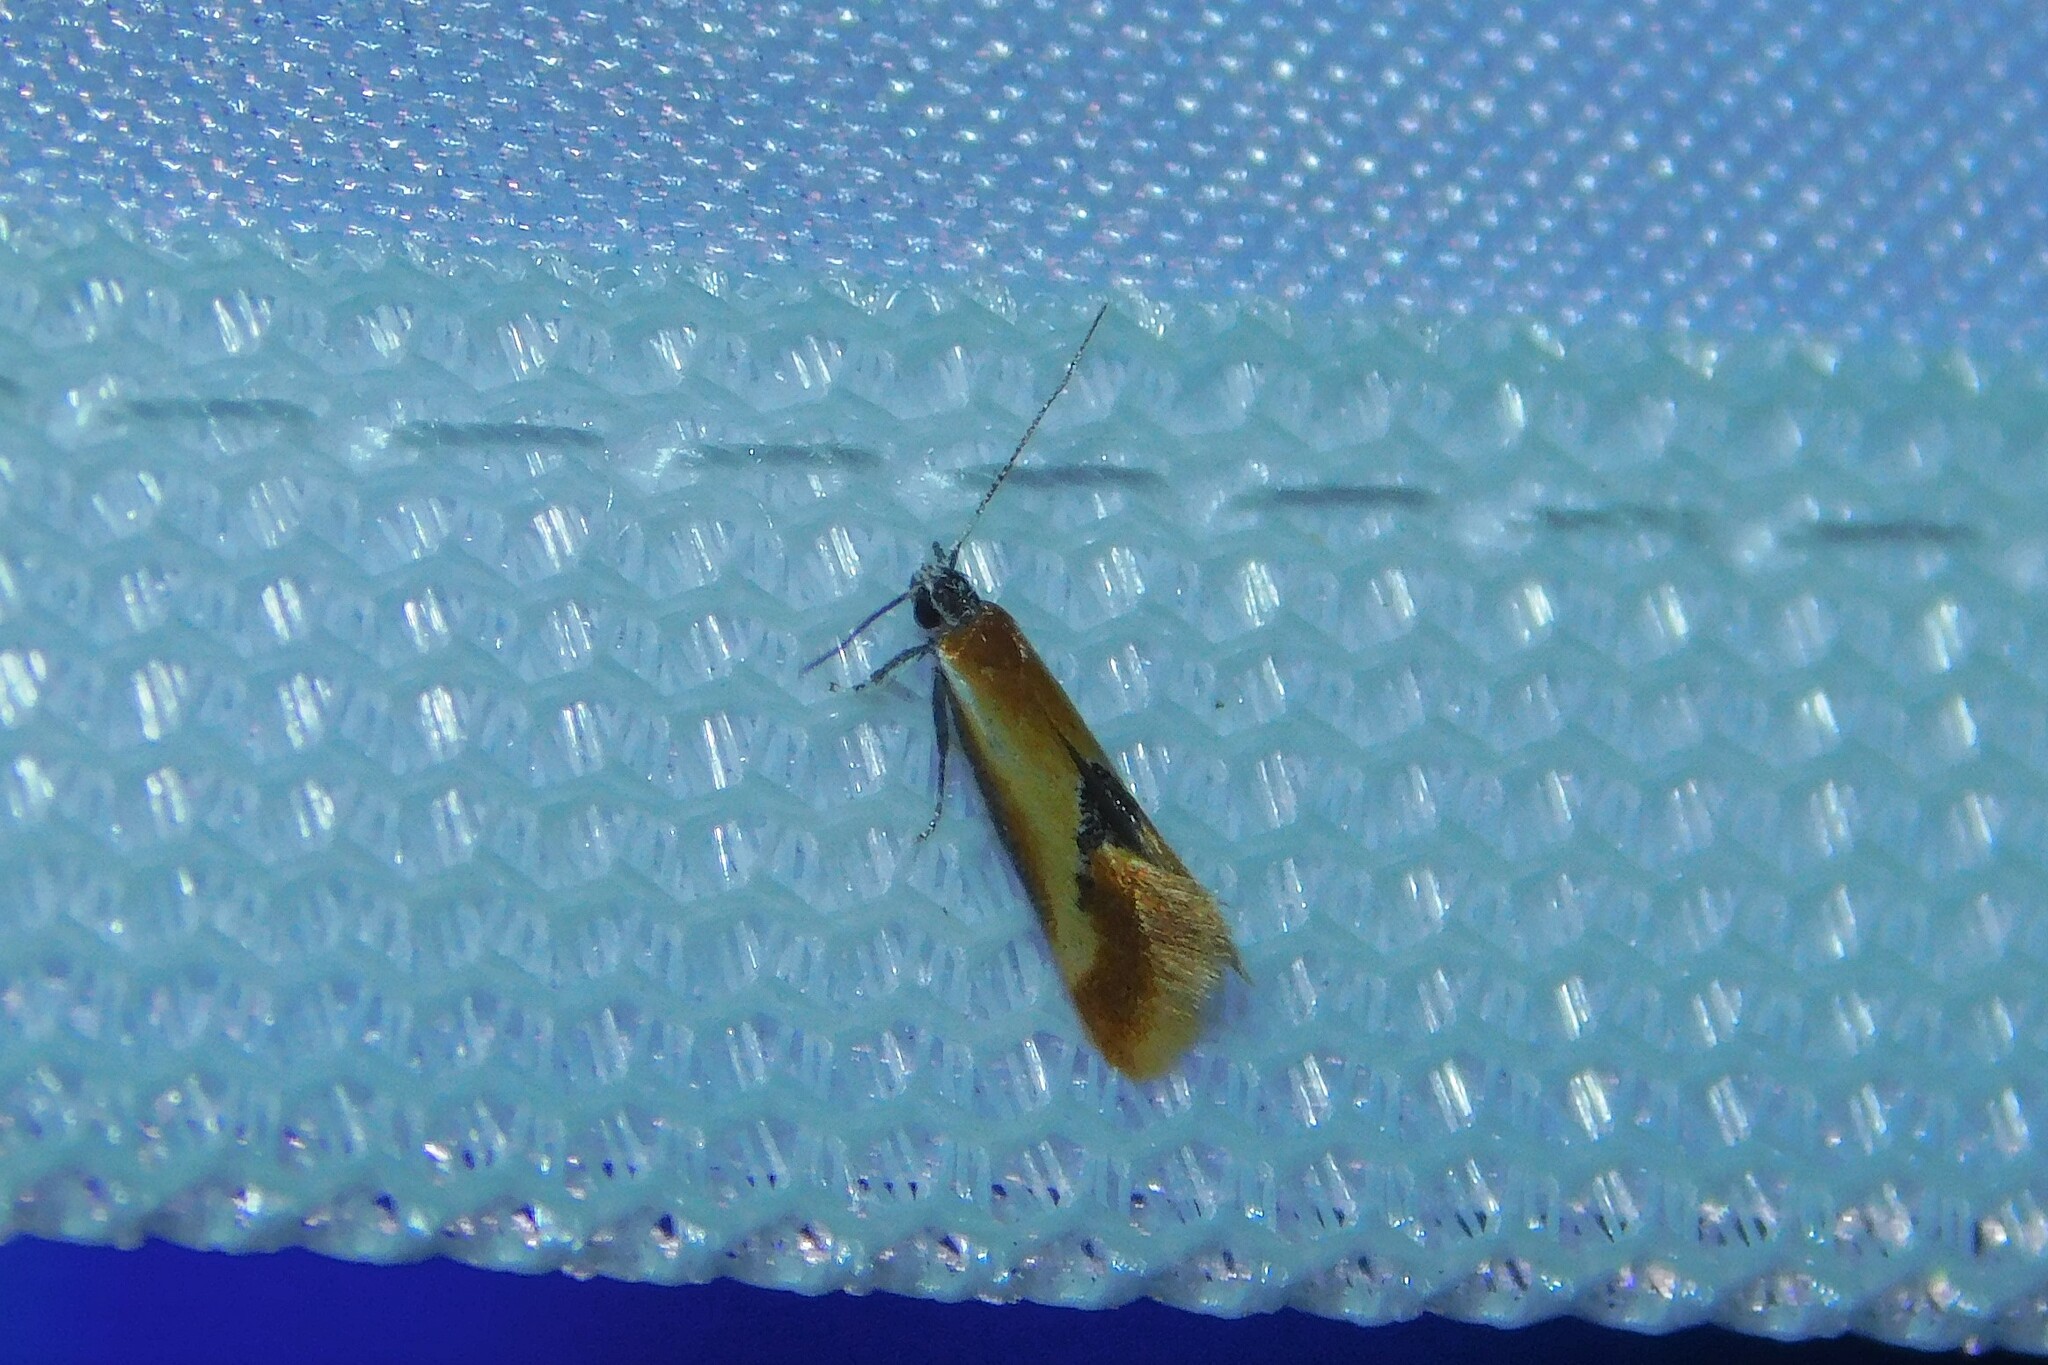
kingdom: Animalia
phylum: Arthropoda
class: Insecta
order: Lepidoptera
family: Oecophoridae
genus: Batia
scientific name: Batia lunaris
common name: Moth
